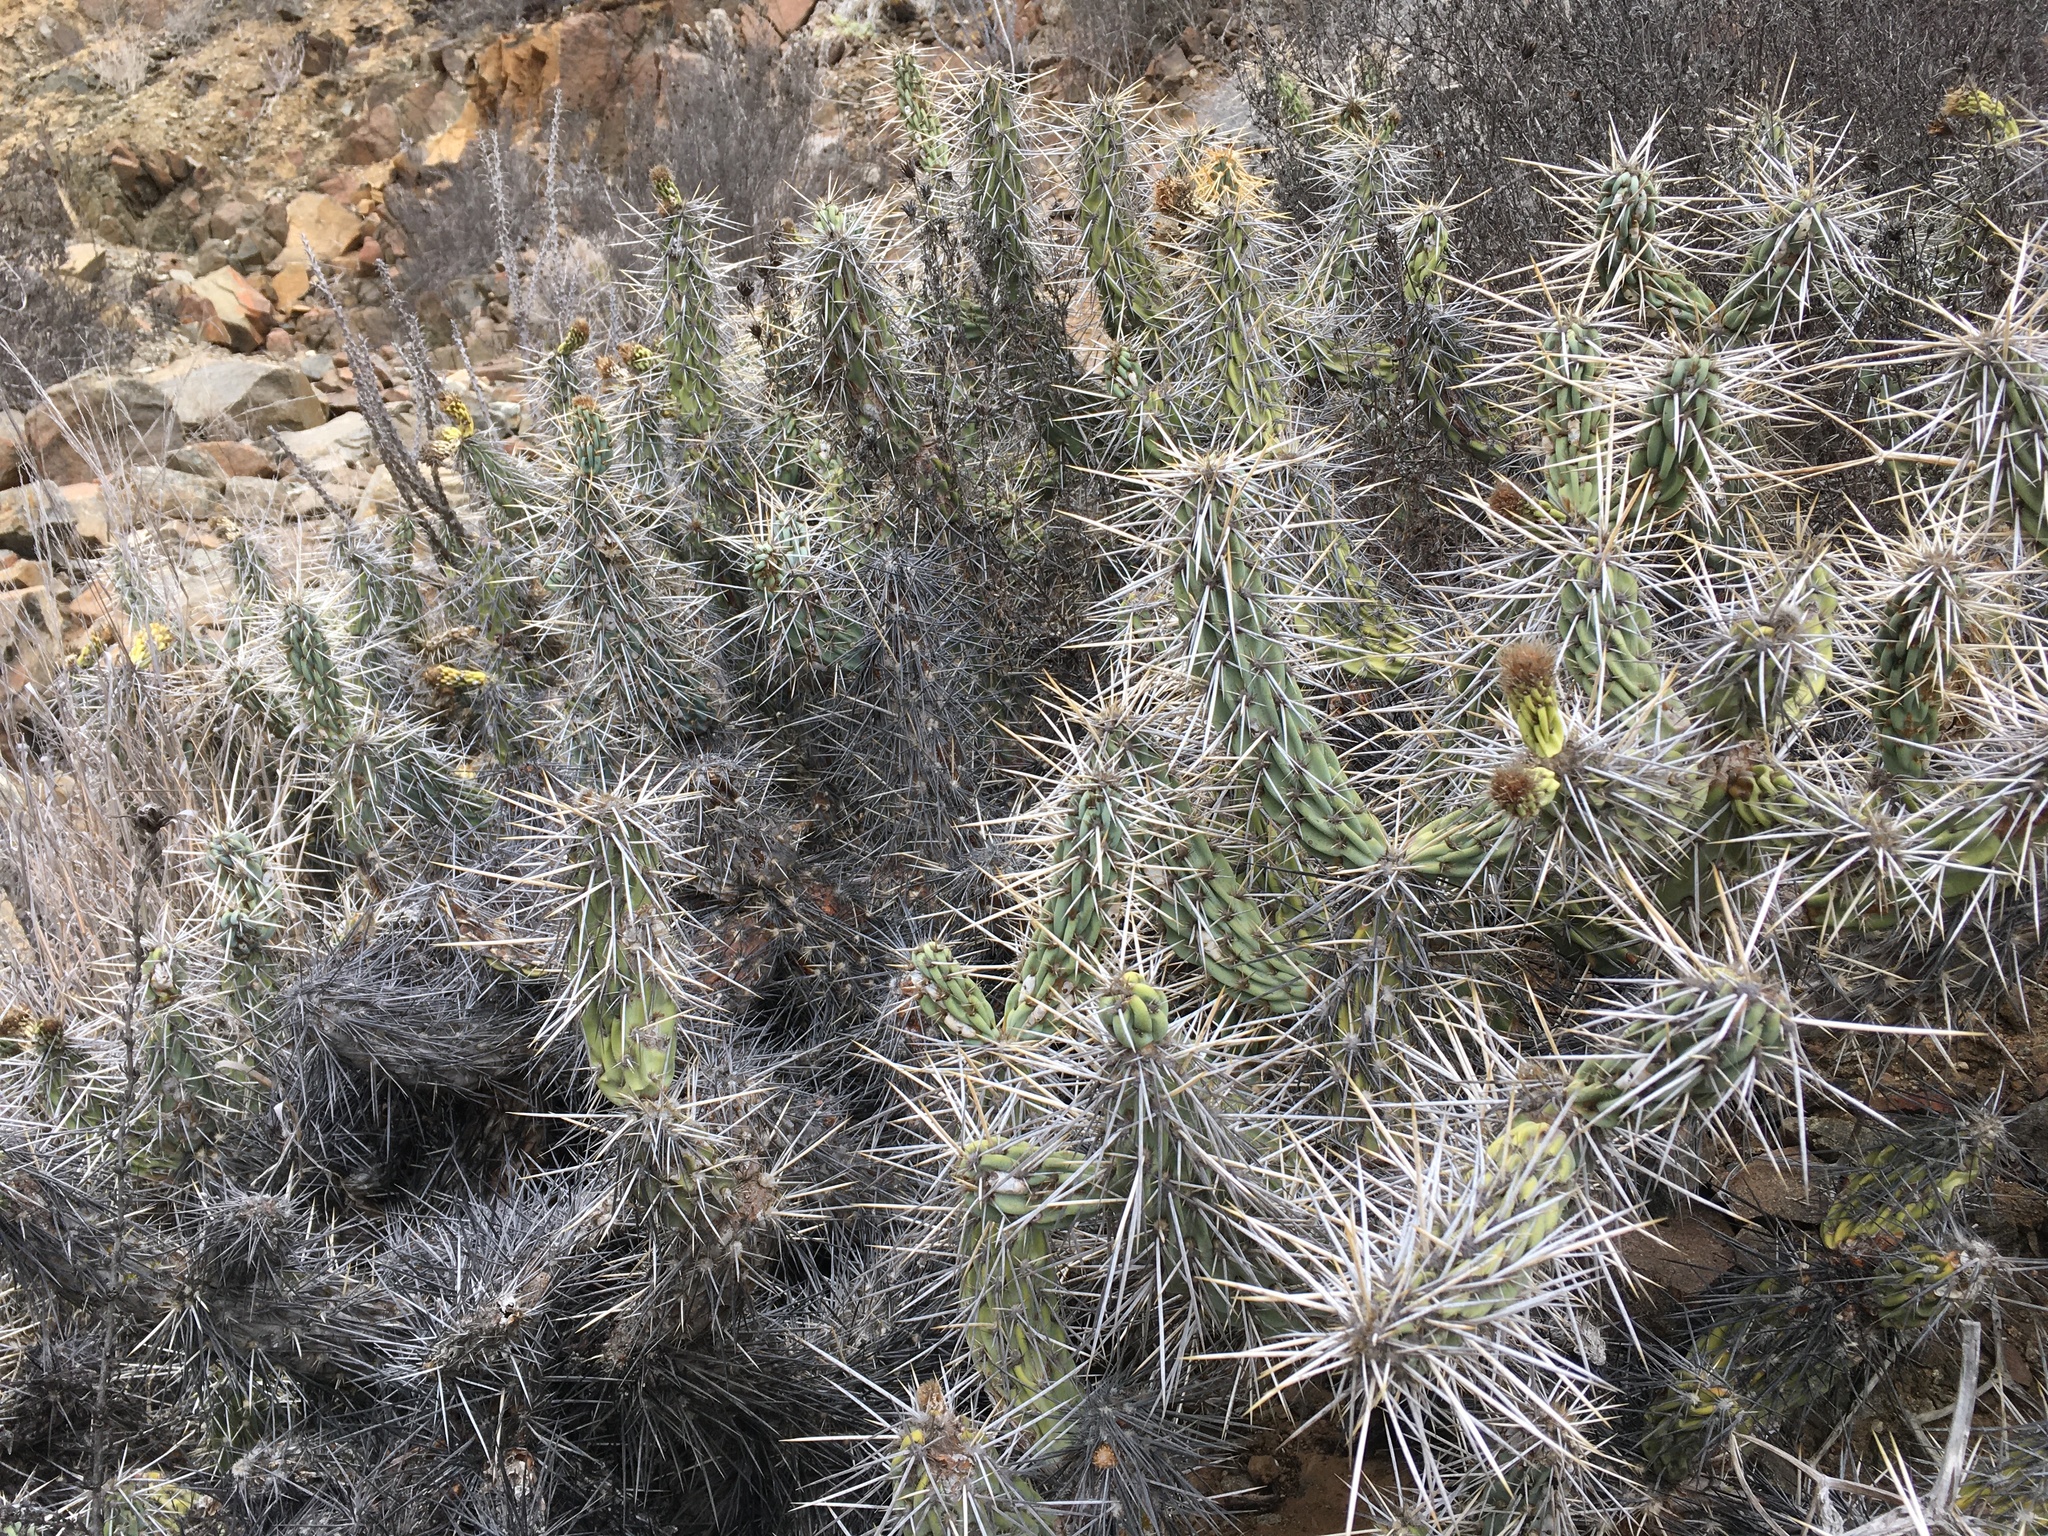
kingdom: Plantae
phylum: Tracheophyta
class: Magnoliopsida
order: Caryophyllales
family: Cactaceae
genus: Miqueliopuntia
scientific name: Miqueliopuntia miquelii
